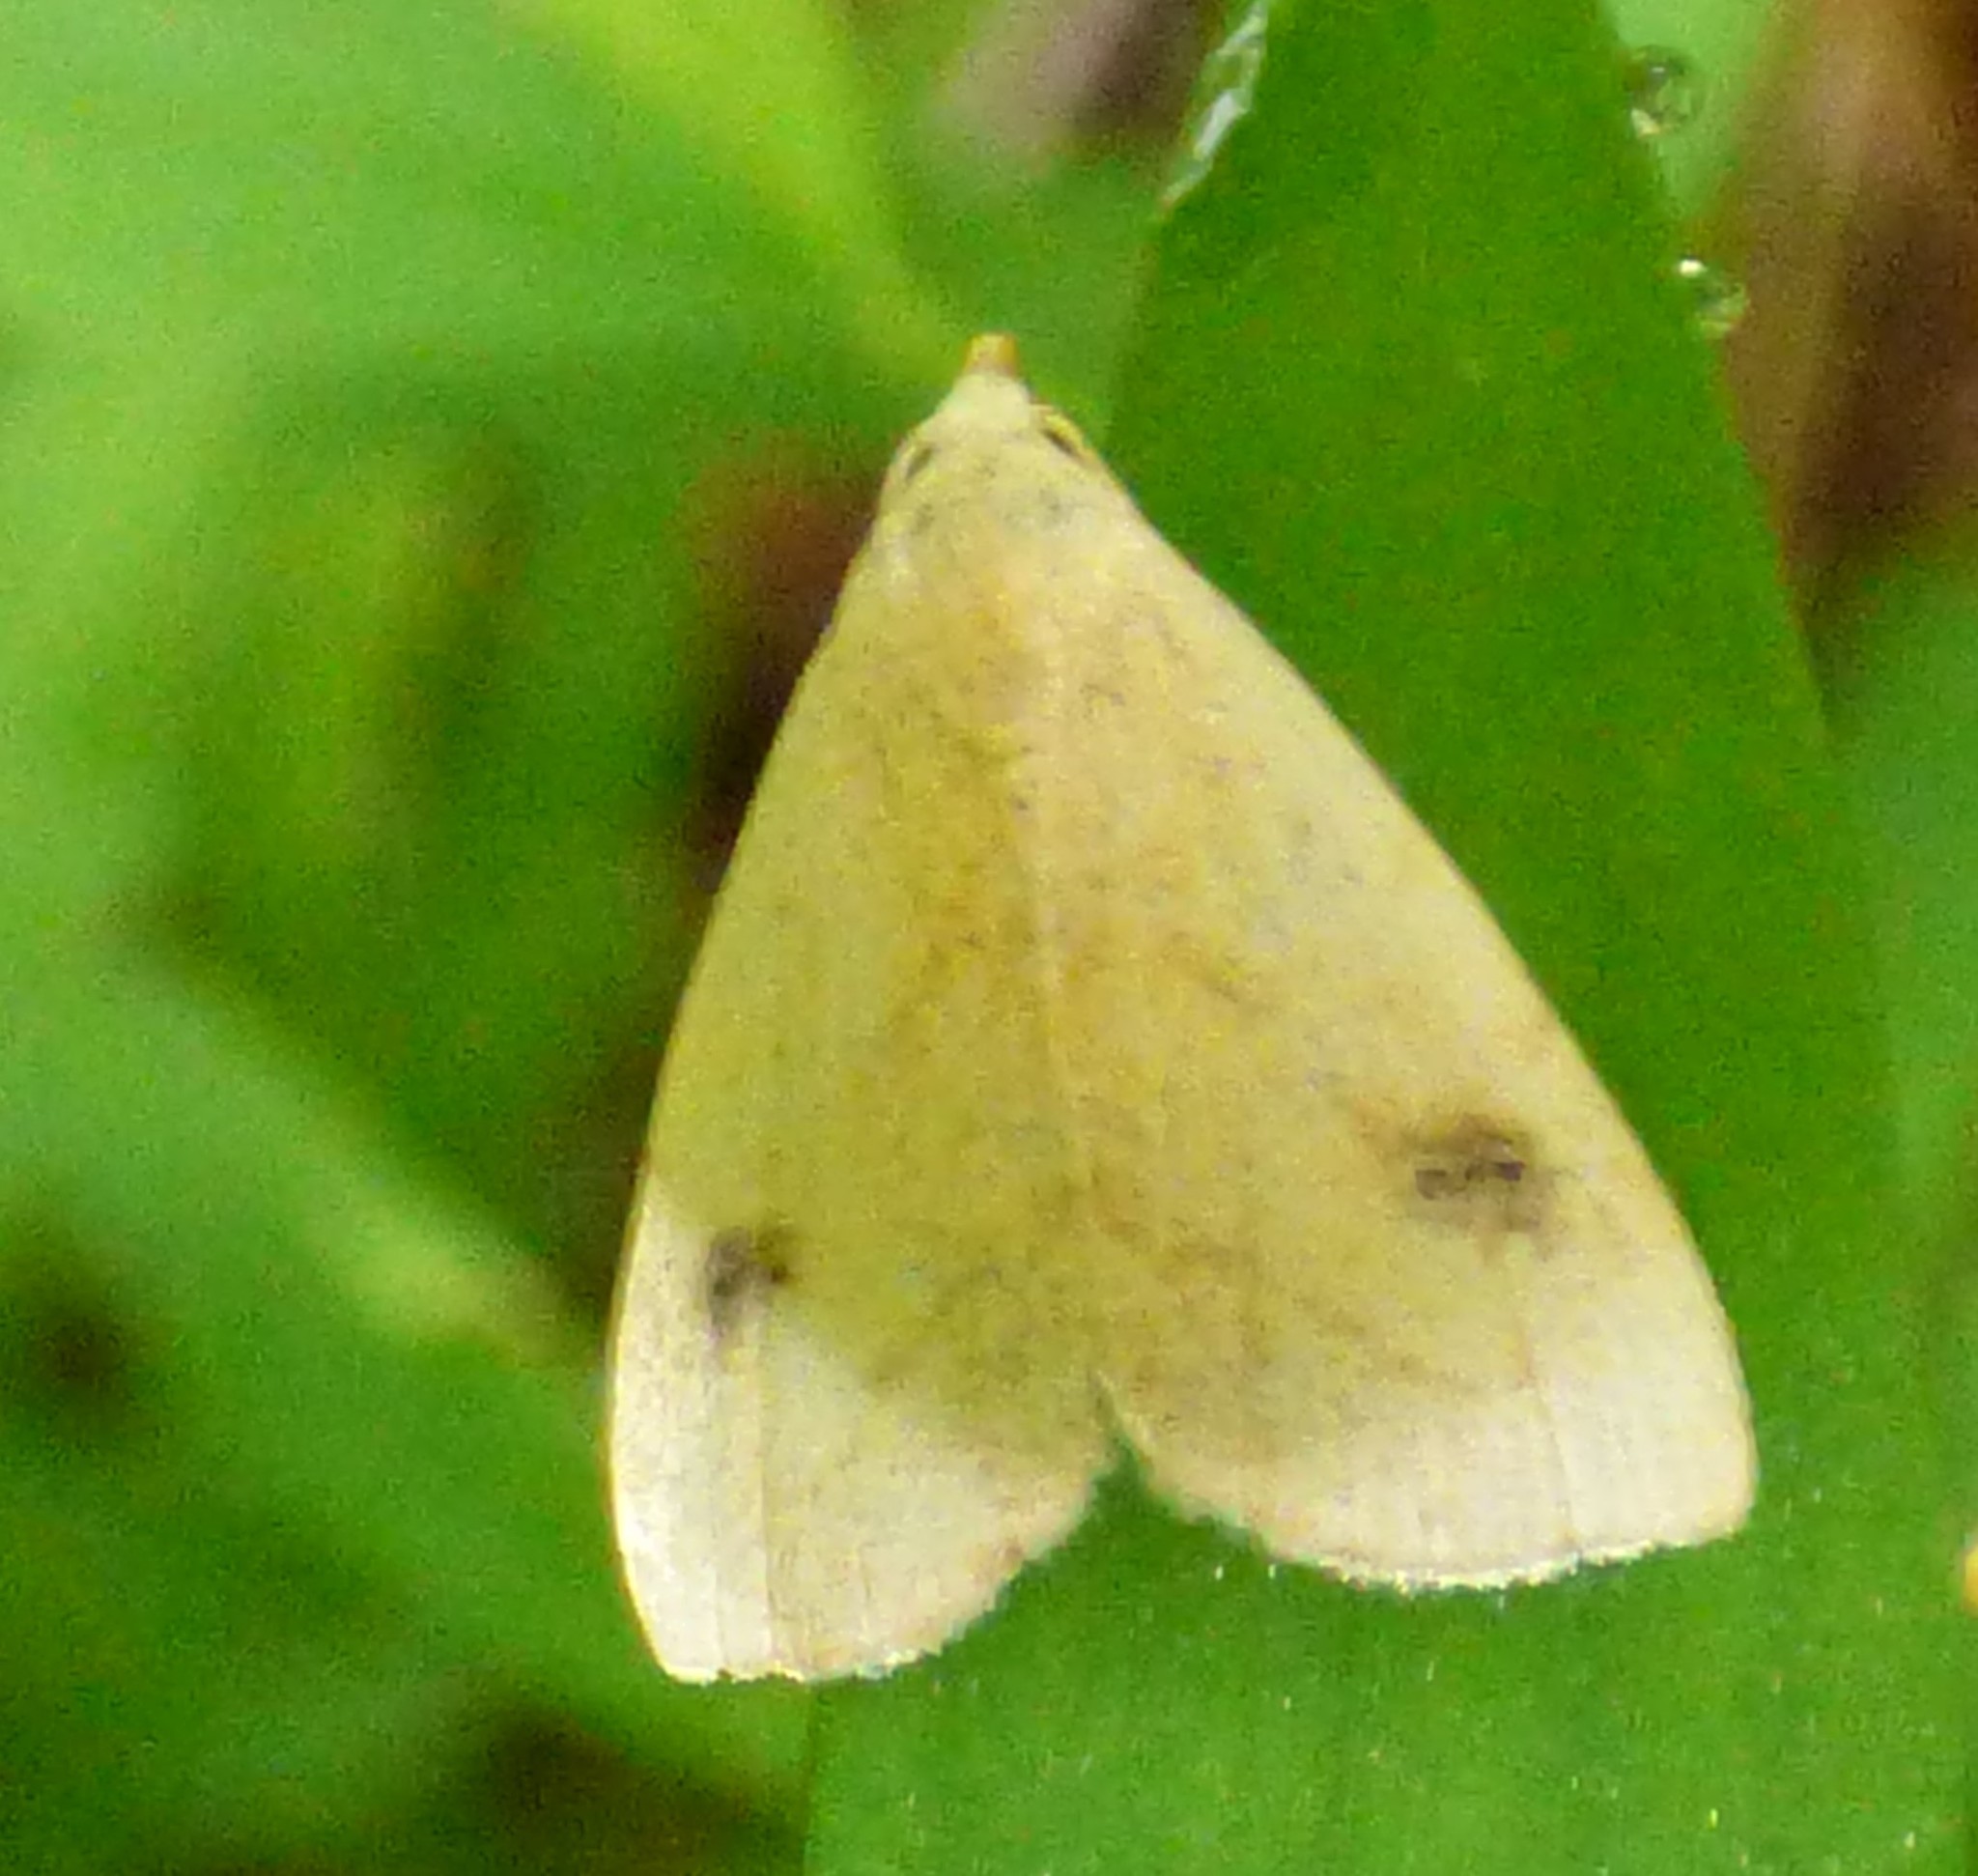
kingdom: Animalia
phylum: Arthropoda
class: Insecta
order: Lepidoptera
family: Erebidae
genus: Rivula
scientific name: Rivula propinqualis
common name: Spotted grass moth
